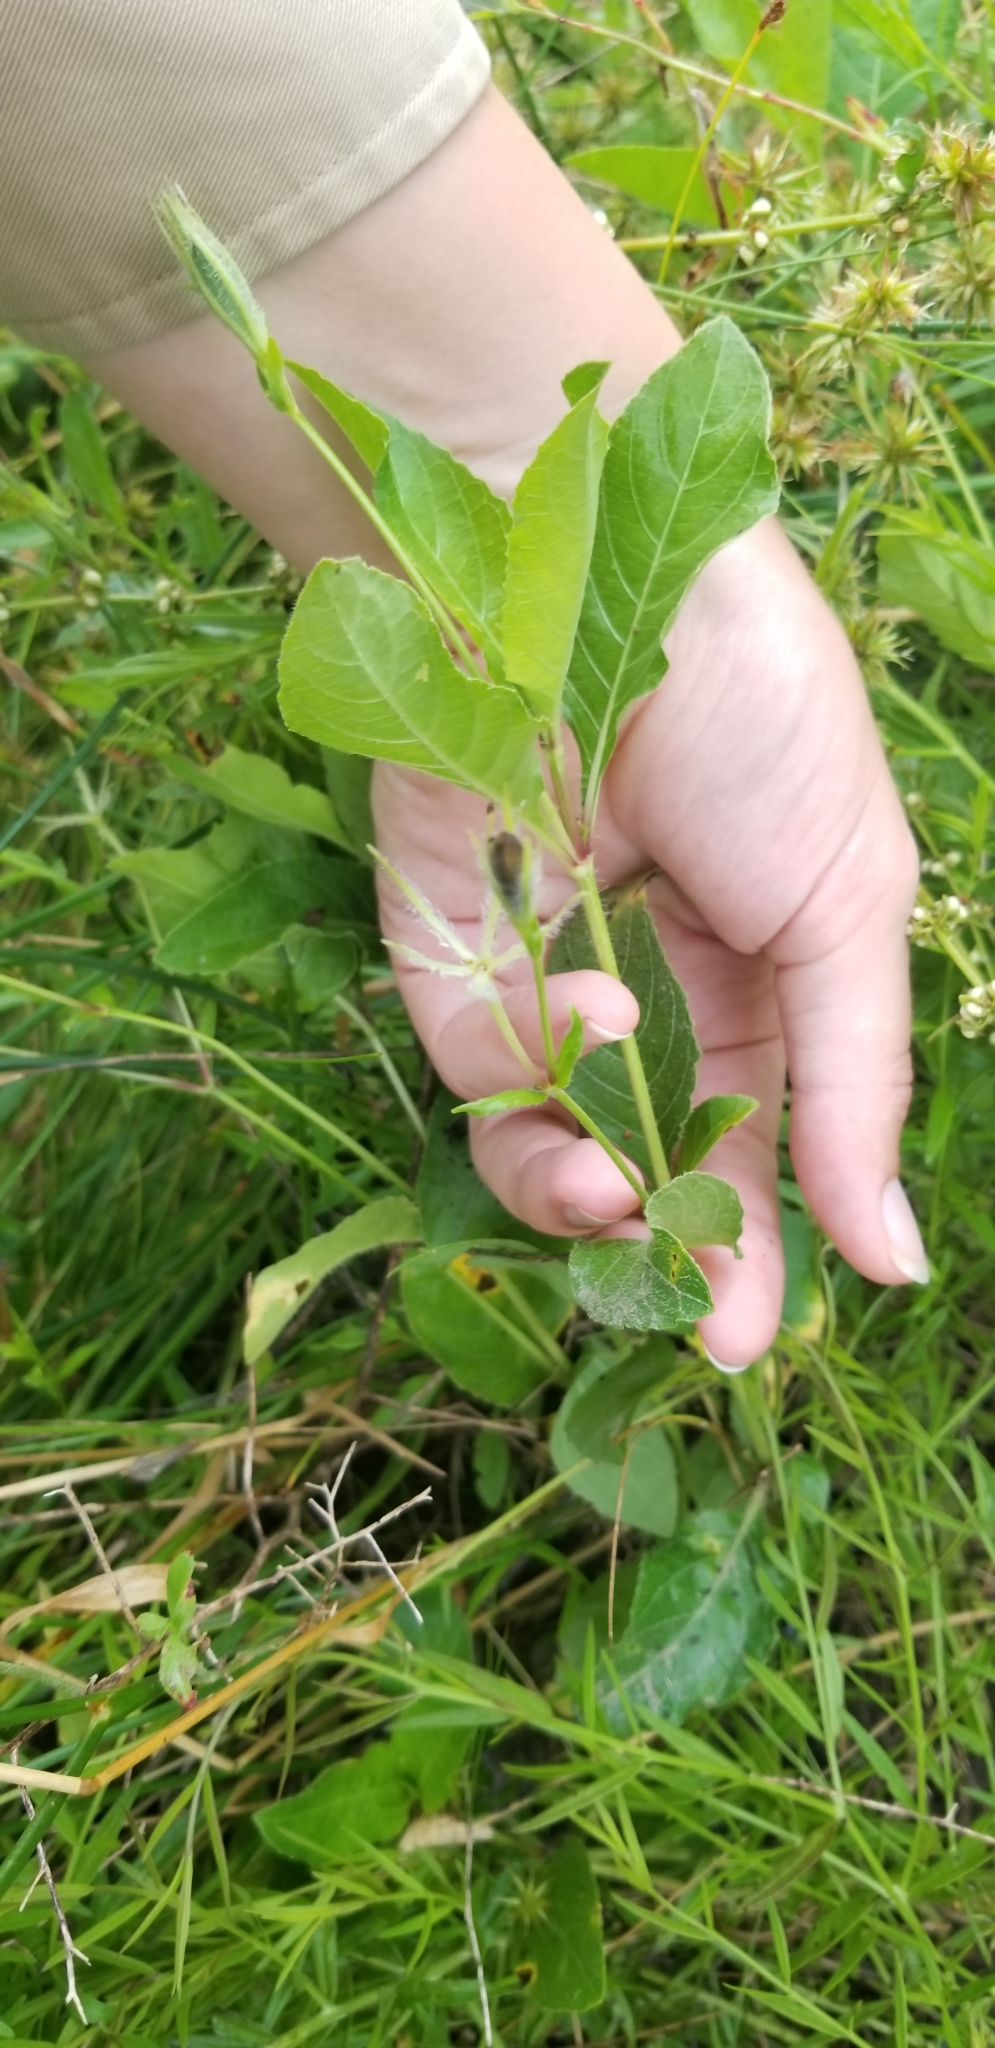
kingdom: Plantae
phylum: Tracheophyta
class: Magnoliopsida
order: Lamiales
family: Acanthaceae
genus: Ruellia
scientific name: Ruellia ciliatiflora
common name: Hairyflower wild petunia
